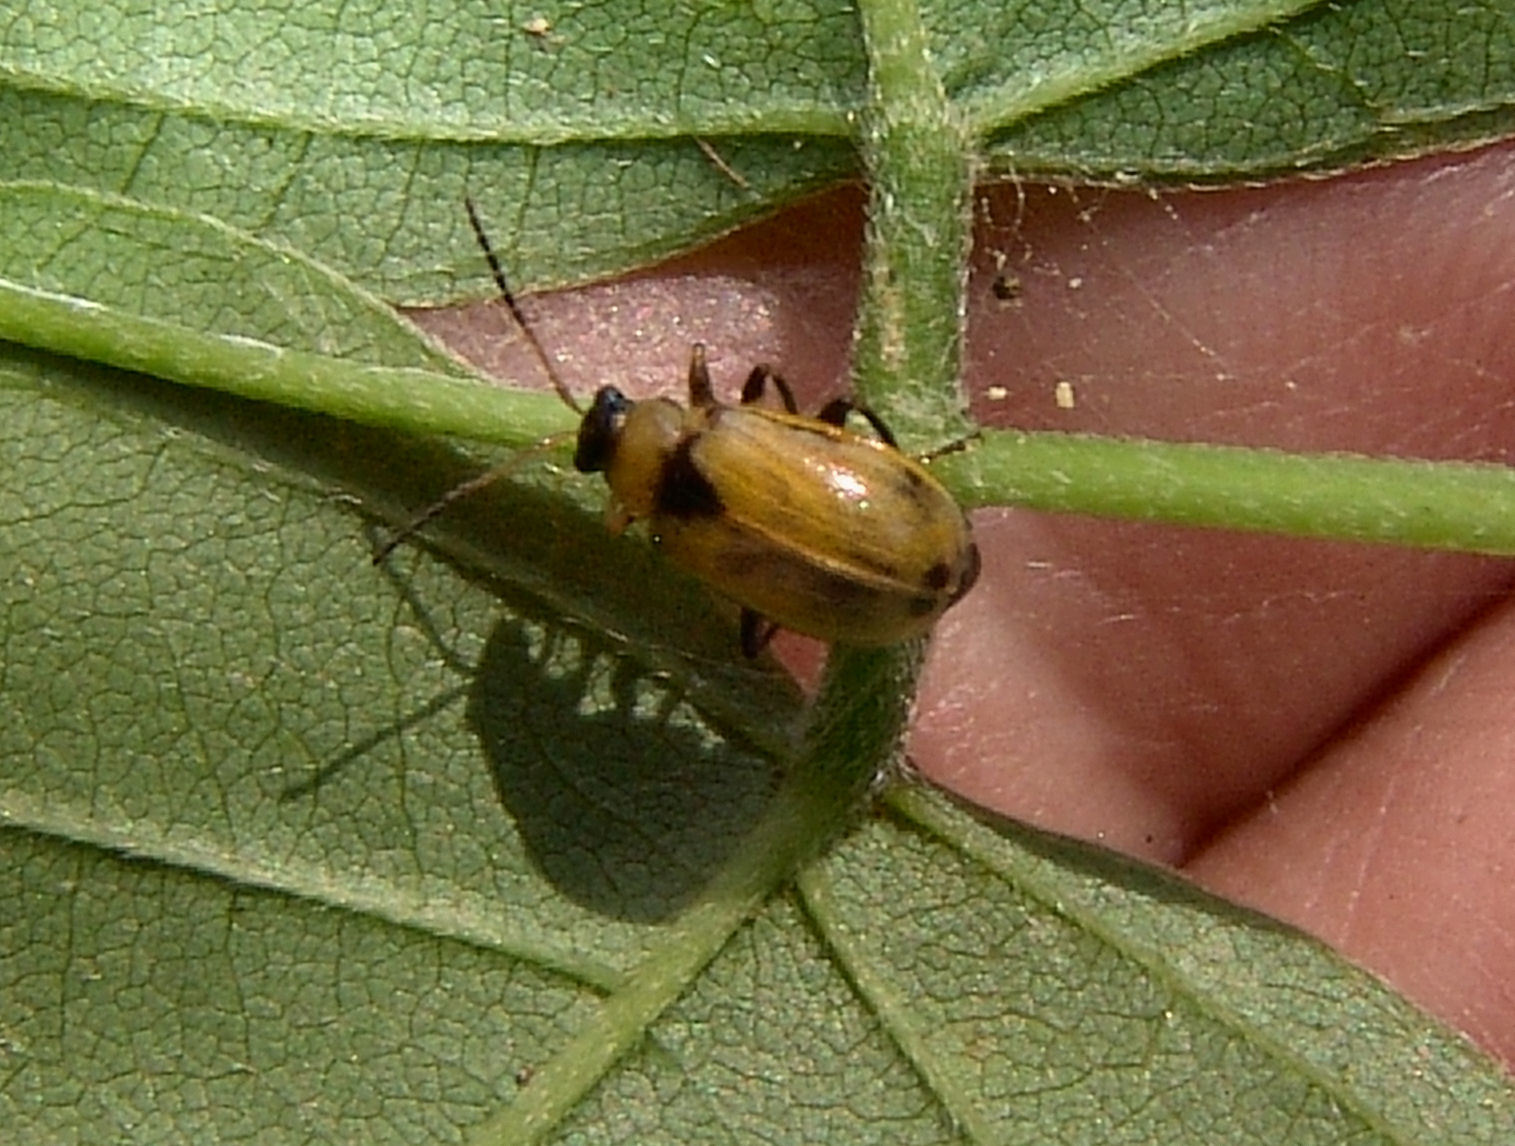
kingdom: Animalia
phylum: Arthropoda
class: Insecta
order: Coleoptera
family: Chrysomelidae
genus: Cerotoma
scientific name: Cerotoma trifurcata
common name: Bean leaf beetle
